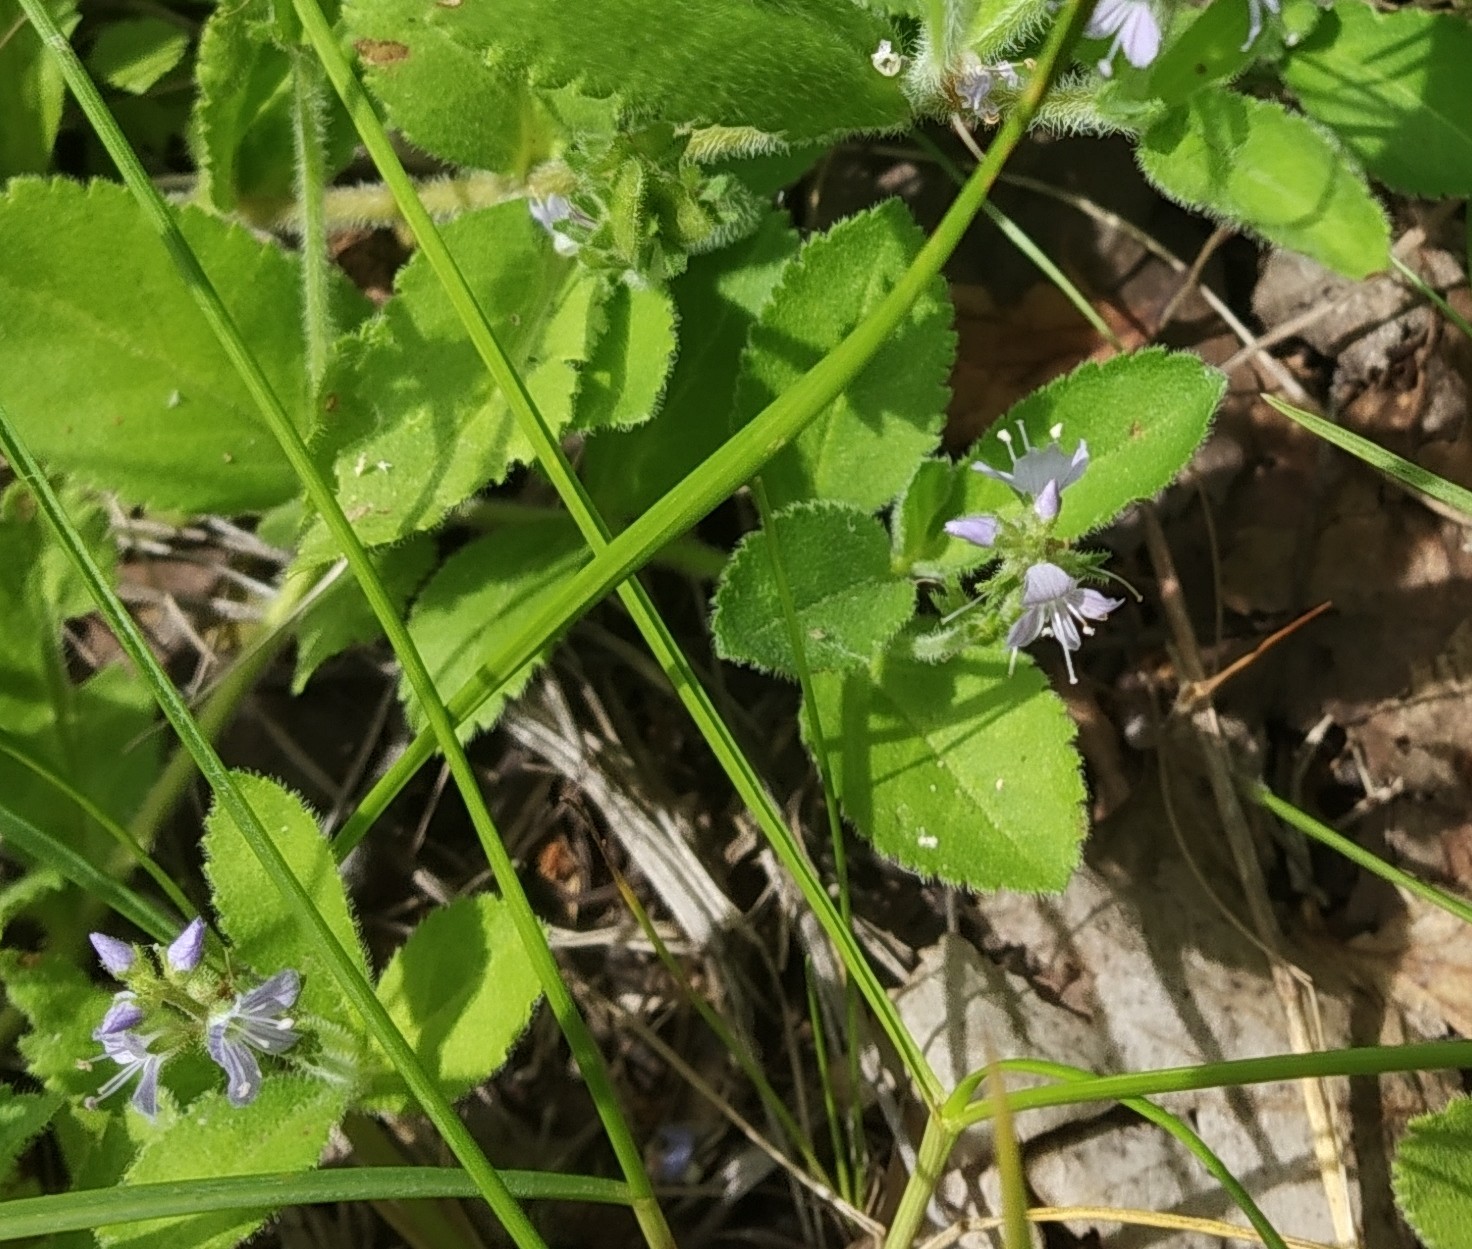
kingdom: Plantae
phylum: Tracheophyta
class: Magnoliopsida
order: Lamiales
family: Plantaginaceae
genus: Veronica
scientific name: Veronica officinalis
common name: Common speedwell
